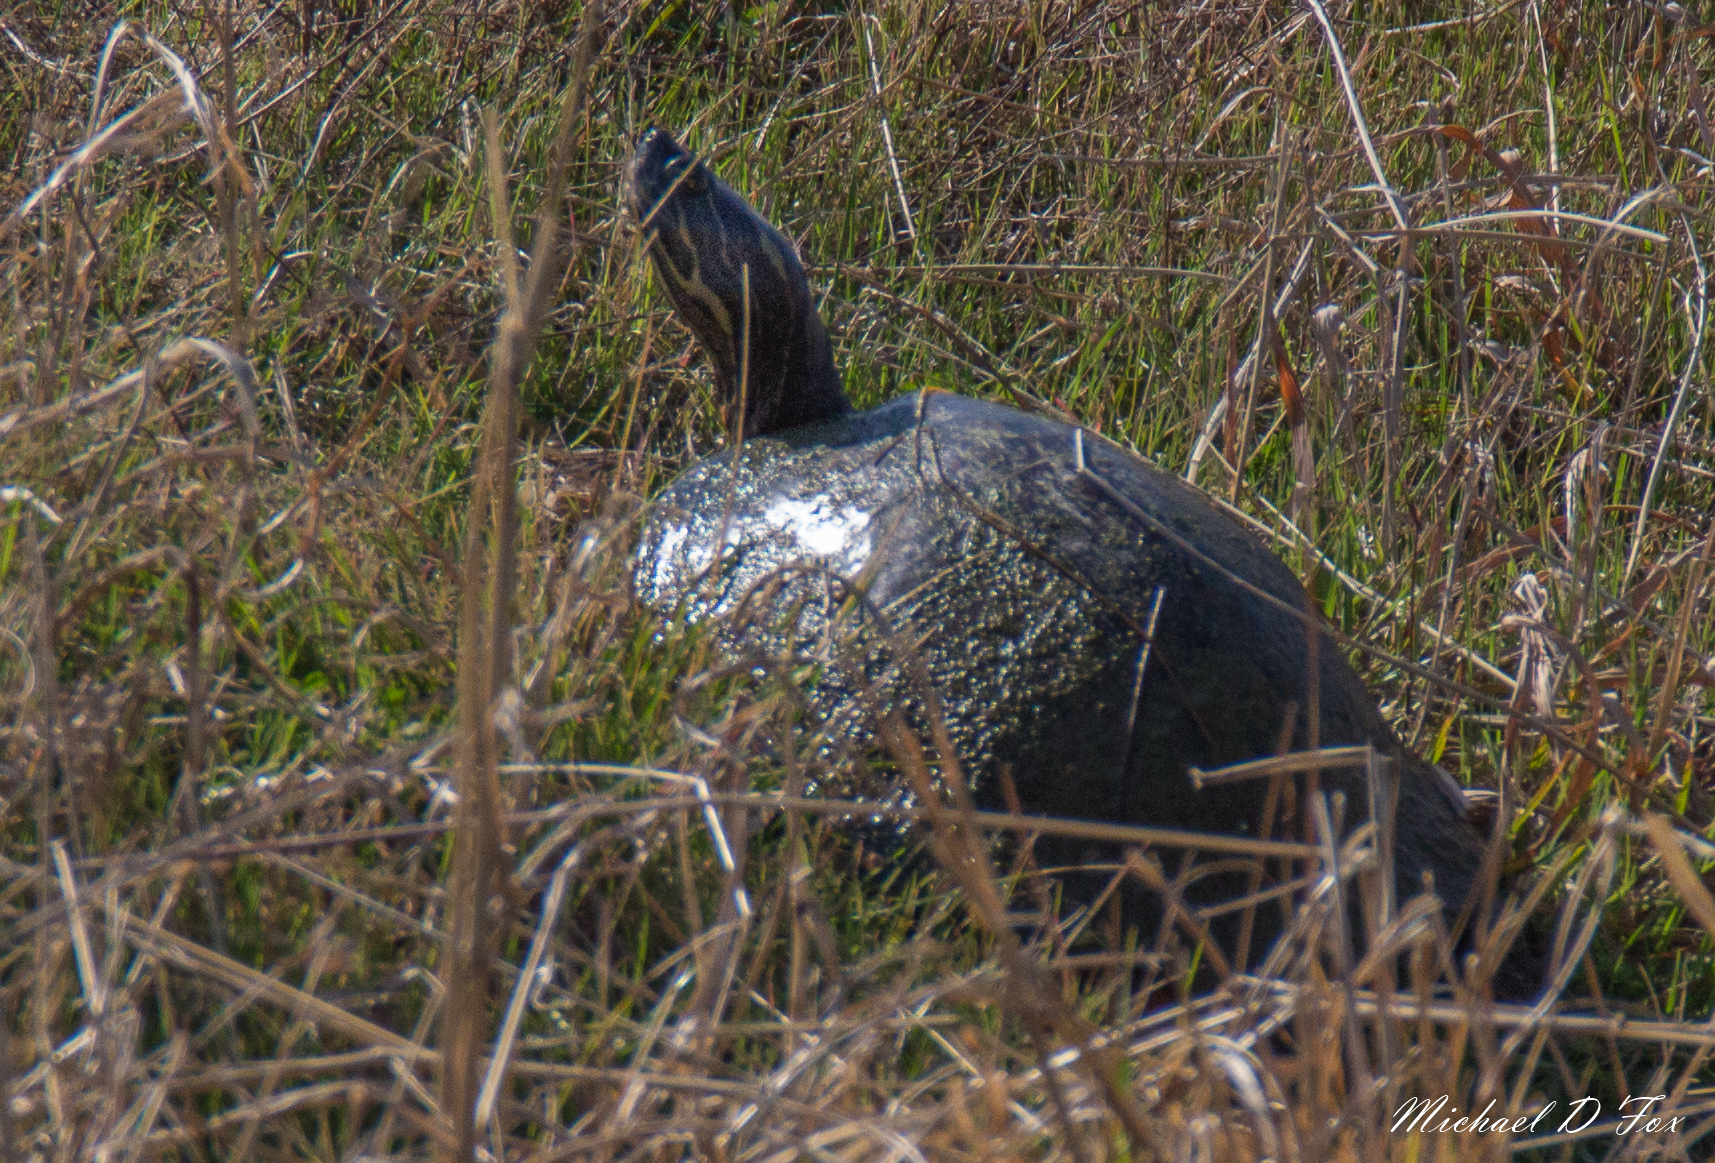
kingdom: Animalia
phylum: Chordata
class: Testudines
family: Emydidae
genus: Pseudemys
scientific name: Pseudemys concinna
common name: Eastern river cooter
